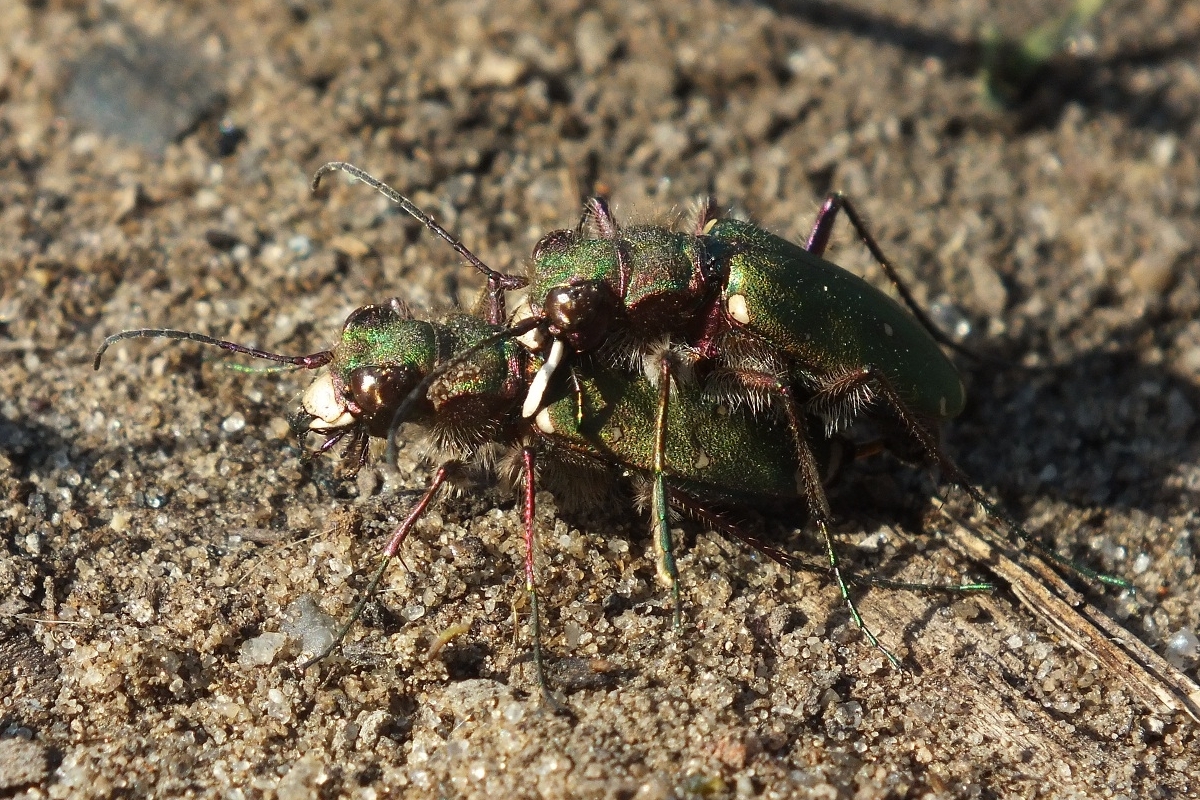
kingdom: Animalia
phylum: Arthropoda
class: Insecta
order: Coleoptera
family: Carabidae
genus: Cicindela
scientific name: Cicindela campestris
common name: Common tiger beetle
